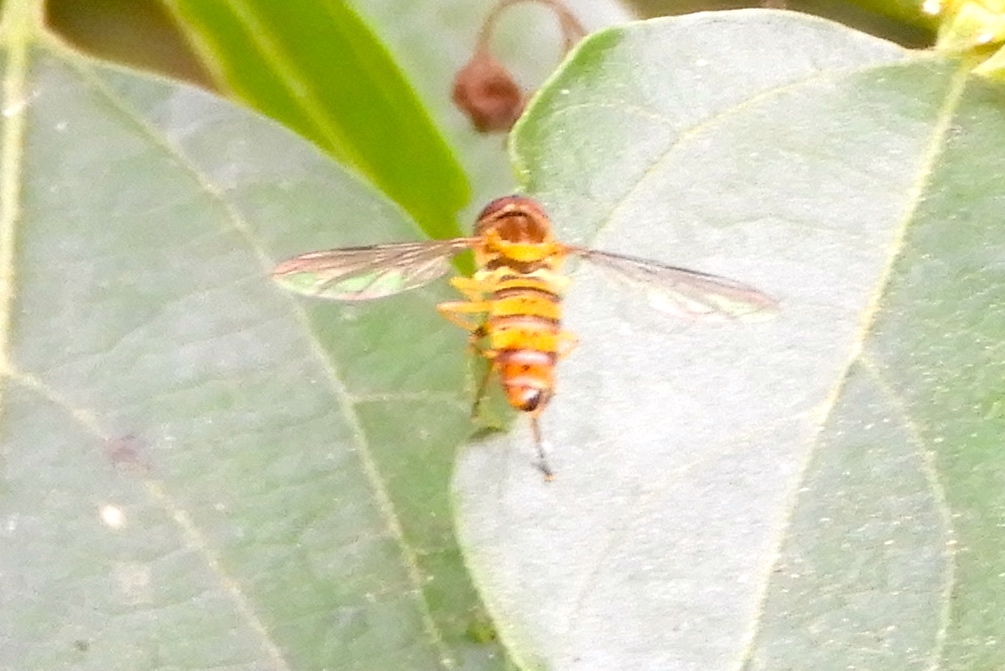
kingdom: Animalia
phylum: Arthropoda
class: Insecta
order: Diptera
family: Syrphidae
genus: Toxomerus
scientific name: Toxomerus
